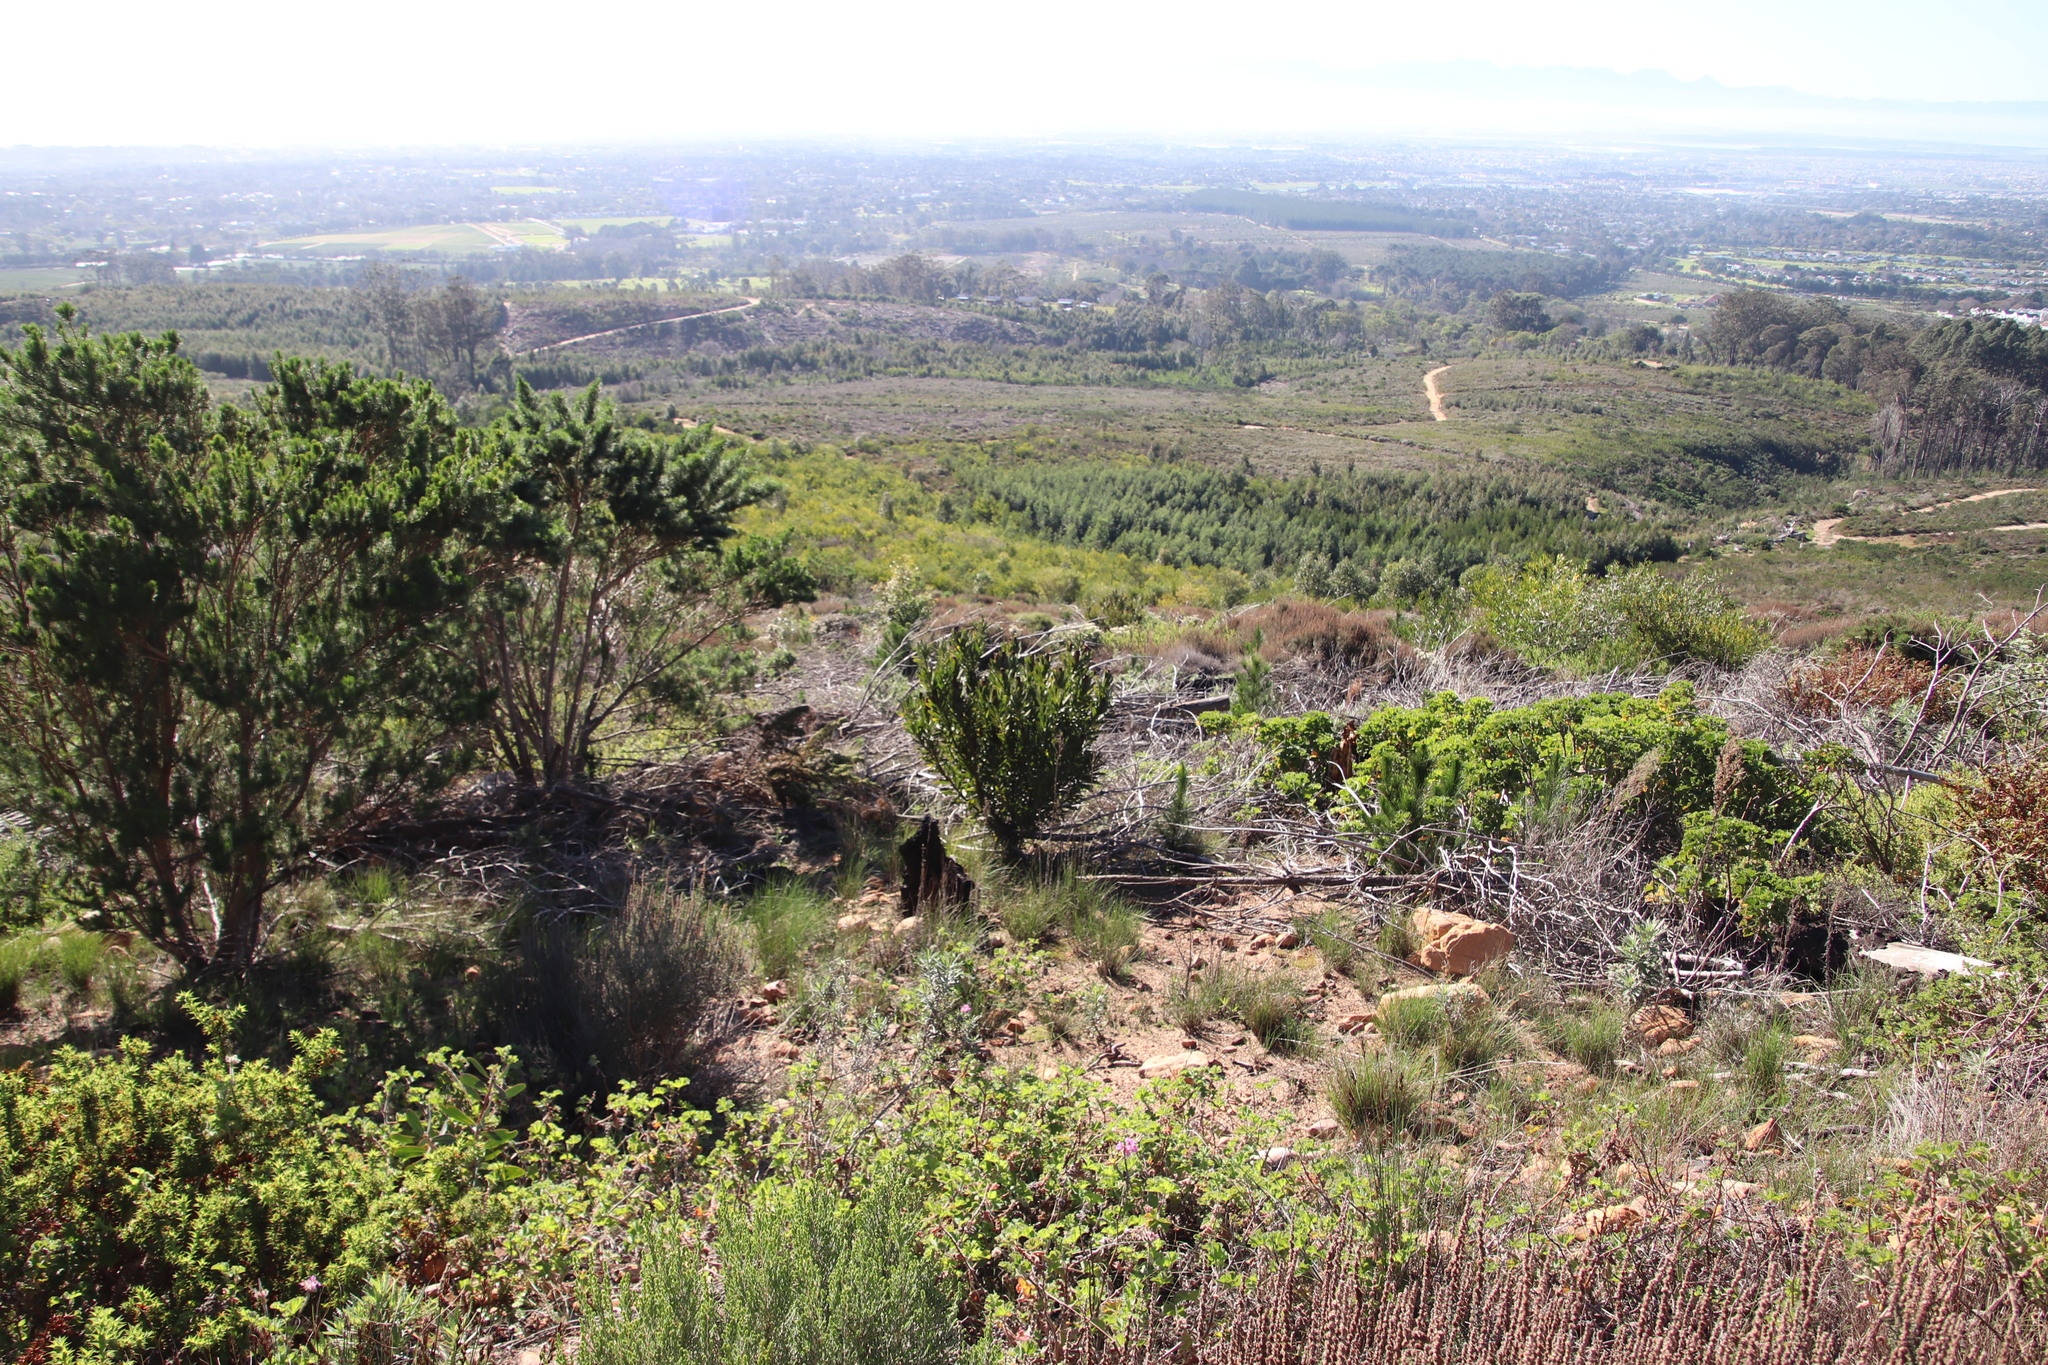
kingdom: Plantae
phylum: Tracheophyta
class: Magnoliopsida
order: Proteales
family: Proteaceae
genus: Protea
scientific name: Protea lepidocarpodendron
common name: Black-bearded protea
